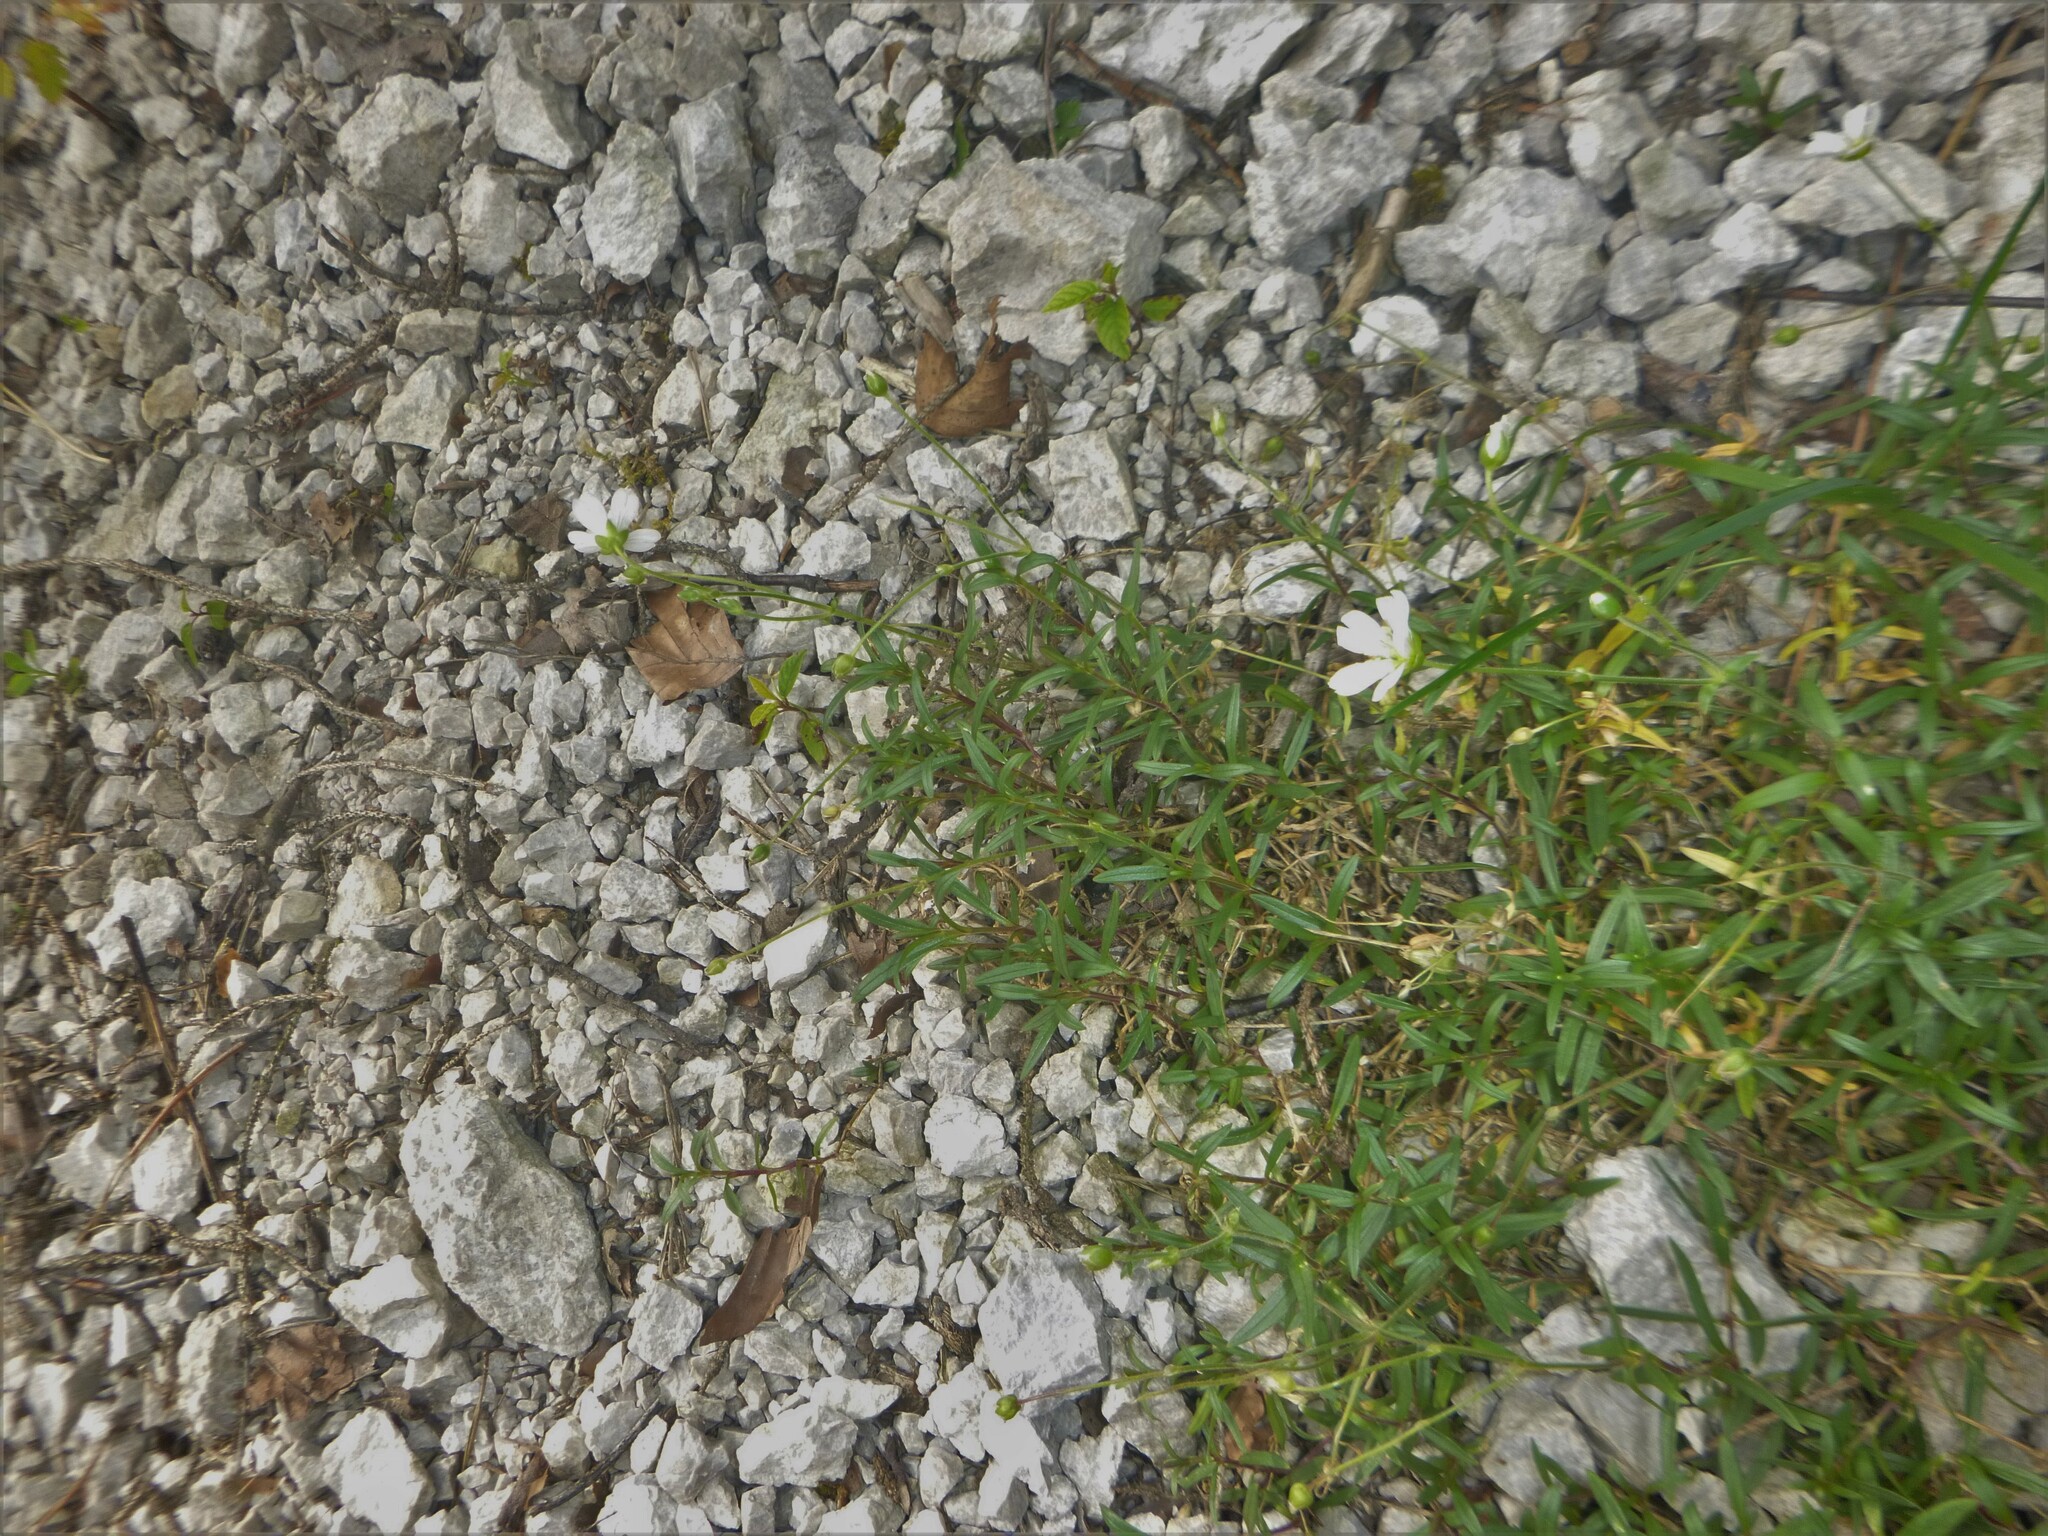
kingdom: Plantae
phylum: Tracheophyta
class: Magnoliopsida
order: Caryophyllales
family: Caryophyllaceae
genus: Cerastium
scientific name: Cerastium arvense
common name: Field mouse-ear
